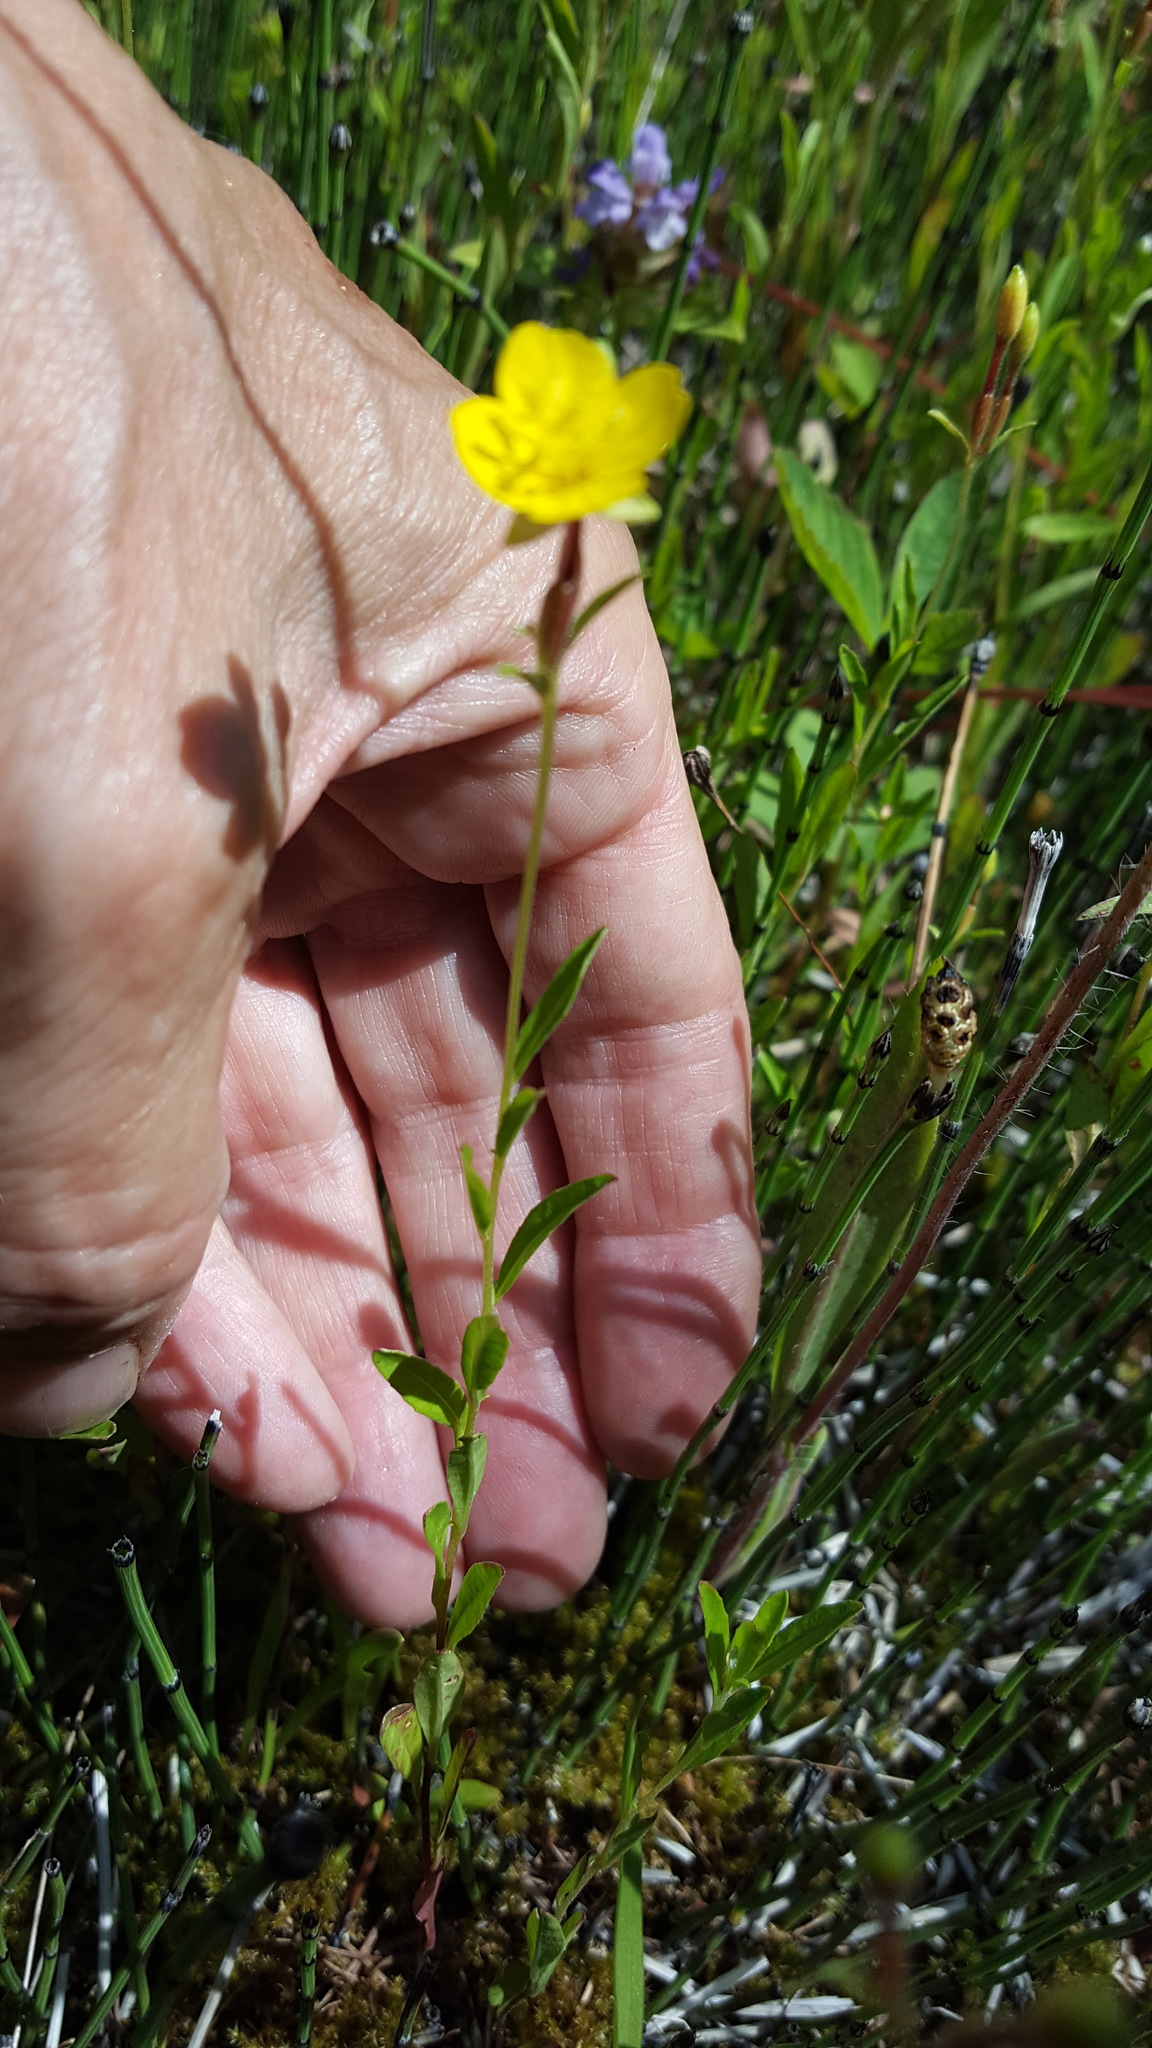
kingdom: Plantae
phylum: Tracheophyta
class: Magnoliopsida
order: Myrtales
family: Onagraceae
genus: Oenothera
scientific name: Oenothera perennis
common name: Small sundrops
